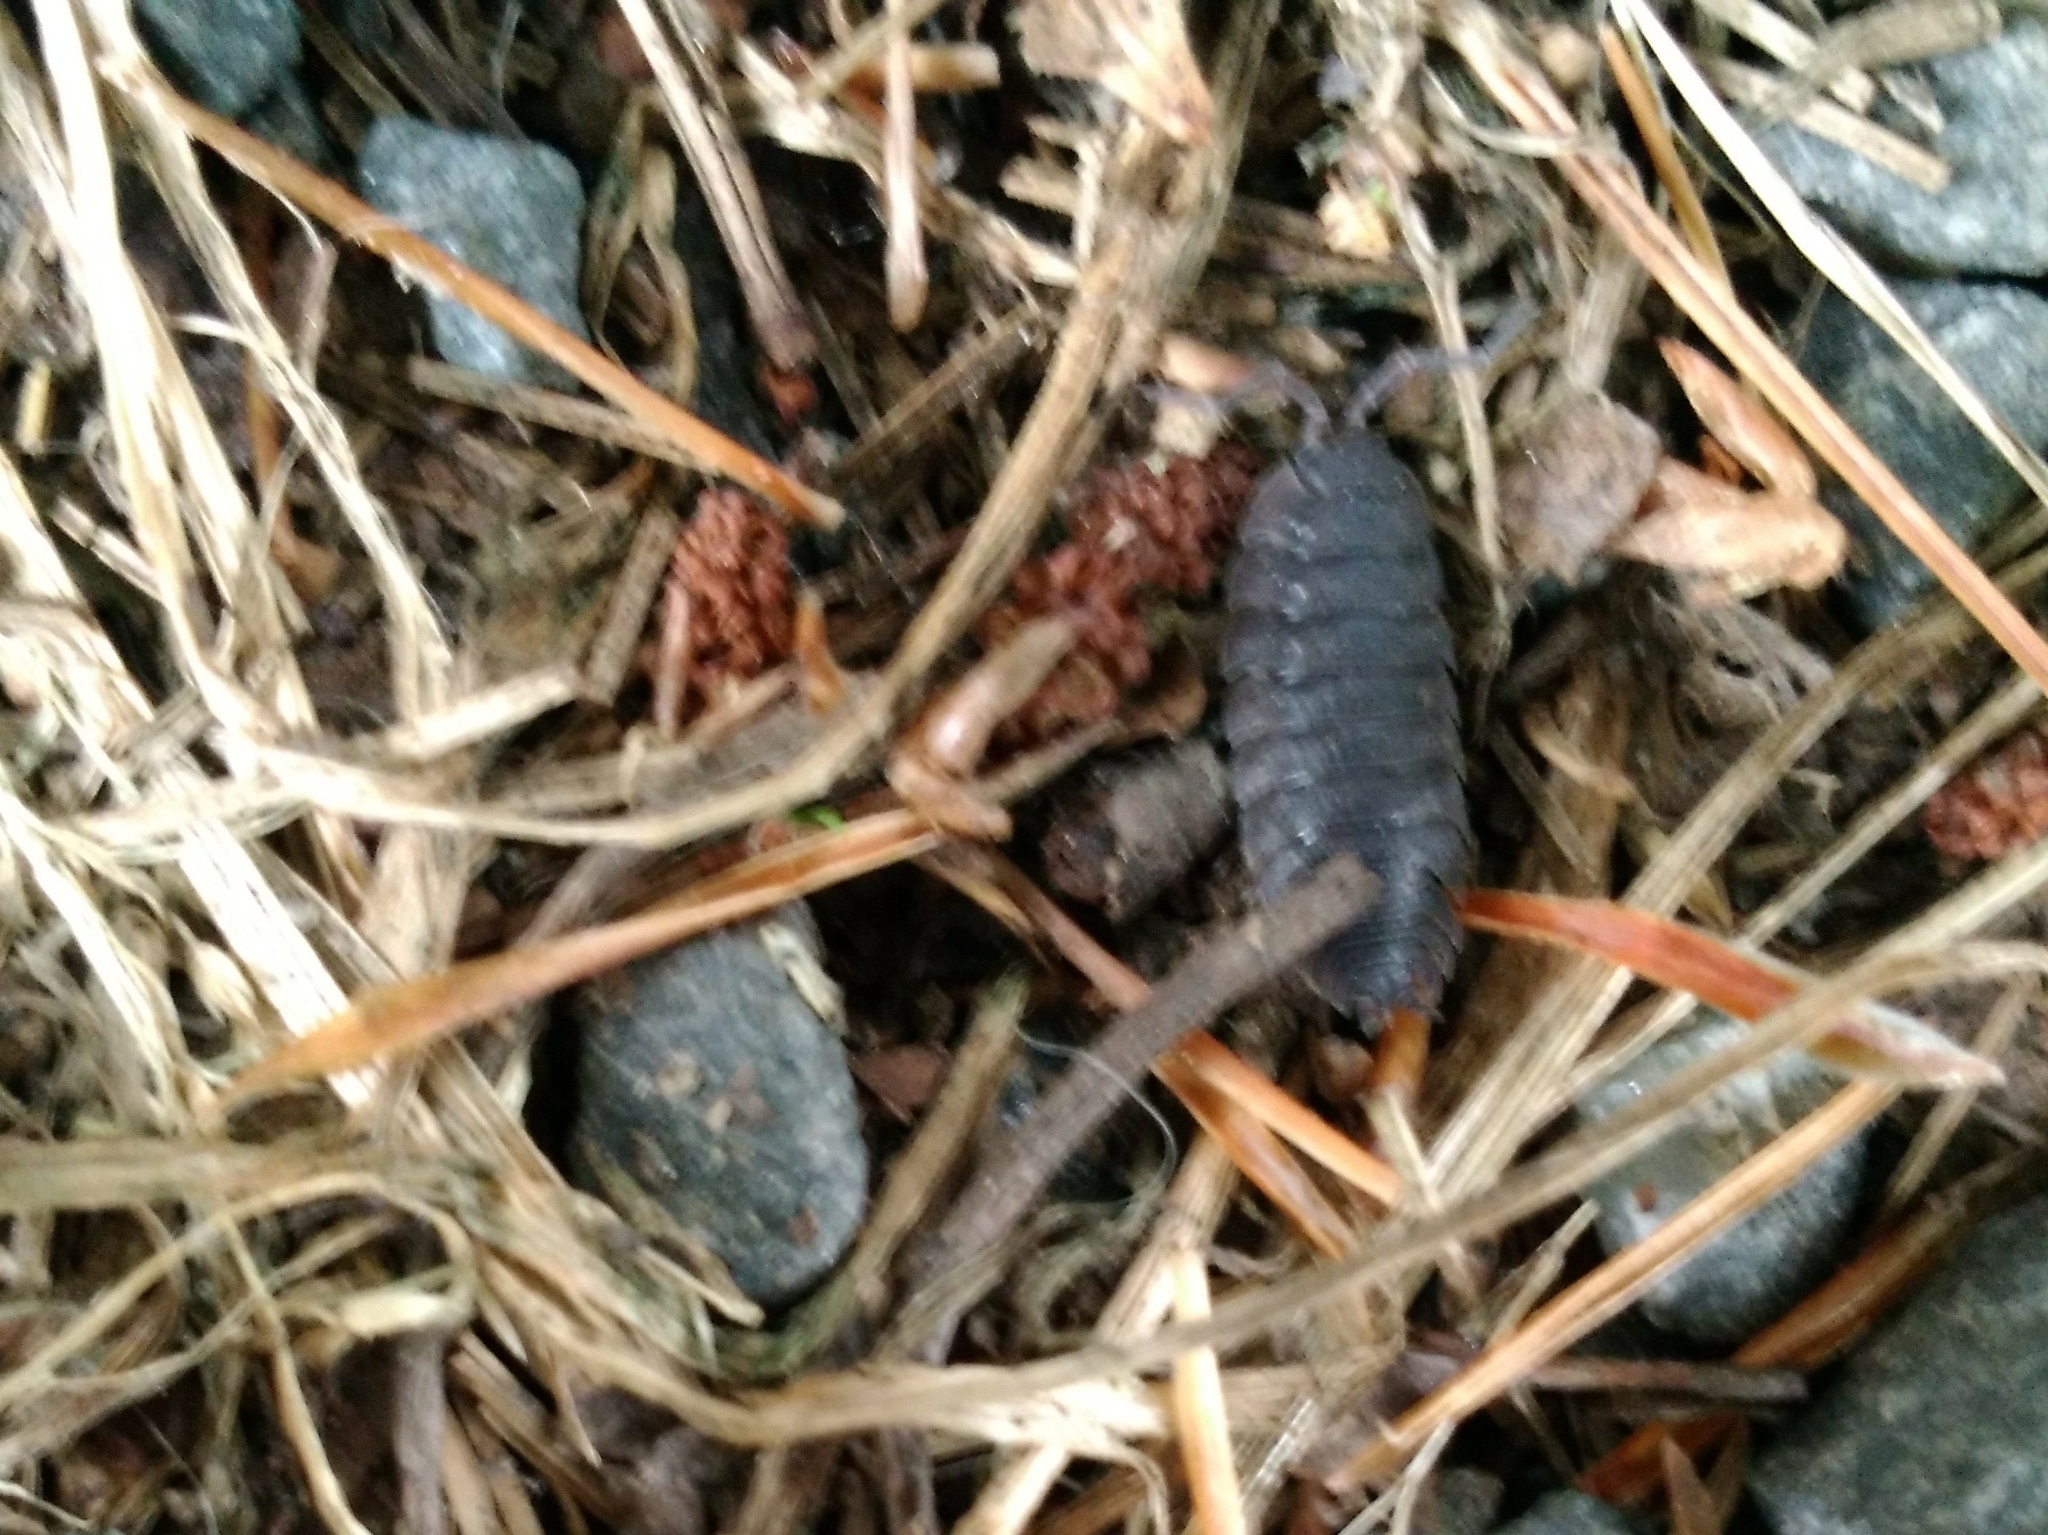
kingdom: Animalia
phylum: Arthropoda
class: Malacostraca
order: Isopoda
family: Porcellionidae
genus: Porcellio
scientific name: Porcellio scaber
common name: Common rough woodlouse
